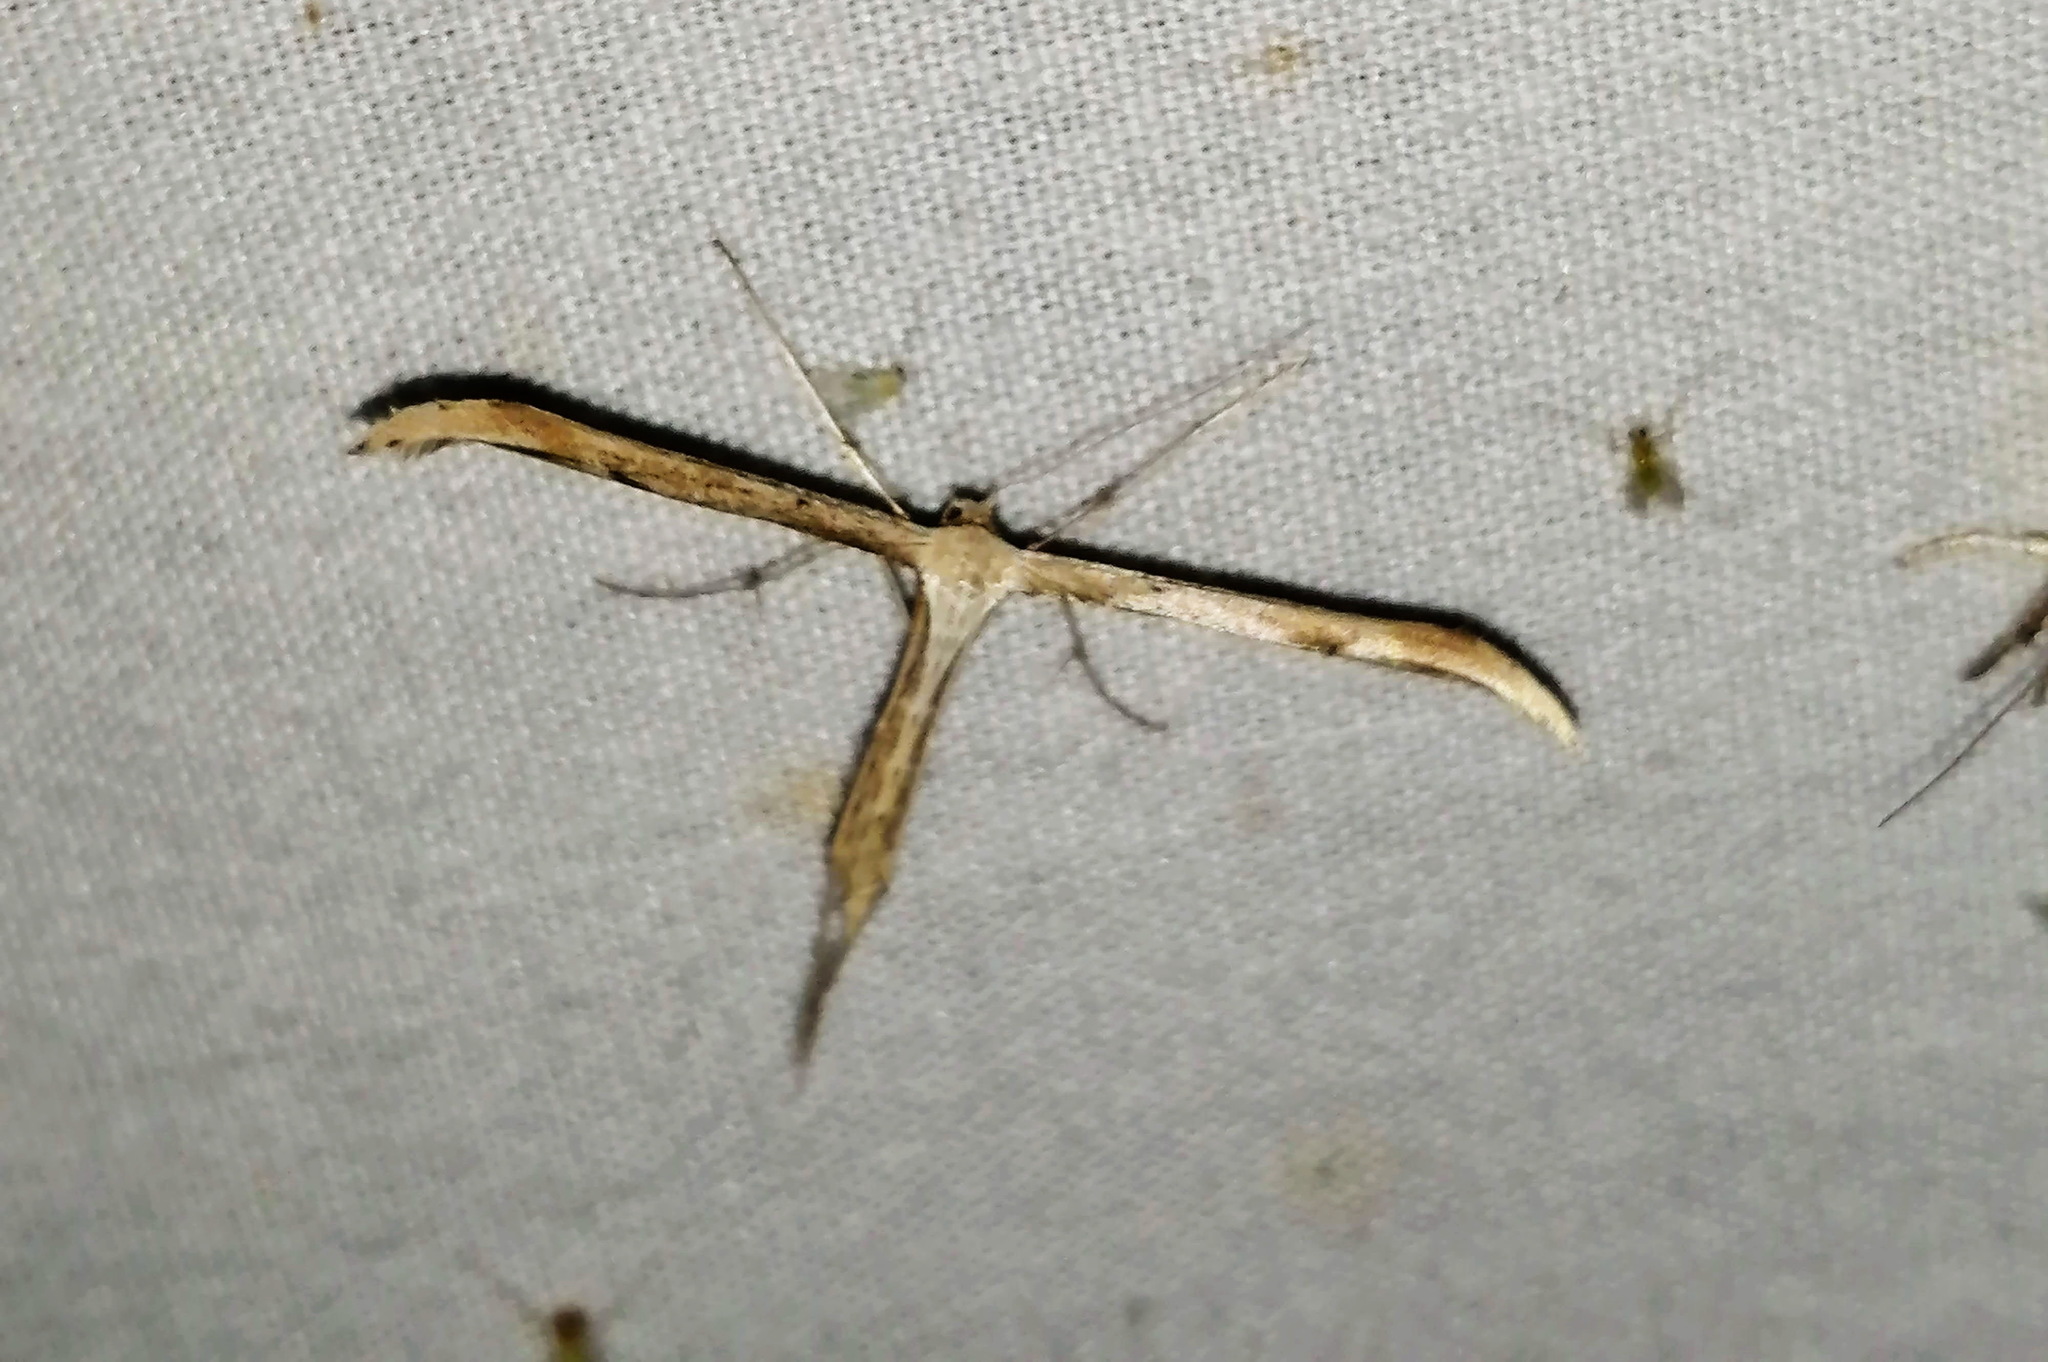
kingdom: Animalia
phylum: Arthropoda
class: Insecta
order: Lepidoptera
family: Pterophoridae
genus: Emmelina
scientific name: Emmelina monodactyla
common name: Common plume
